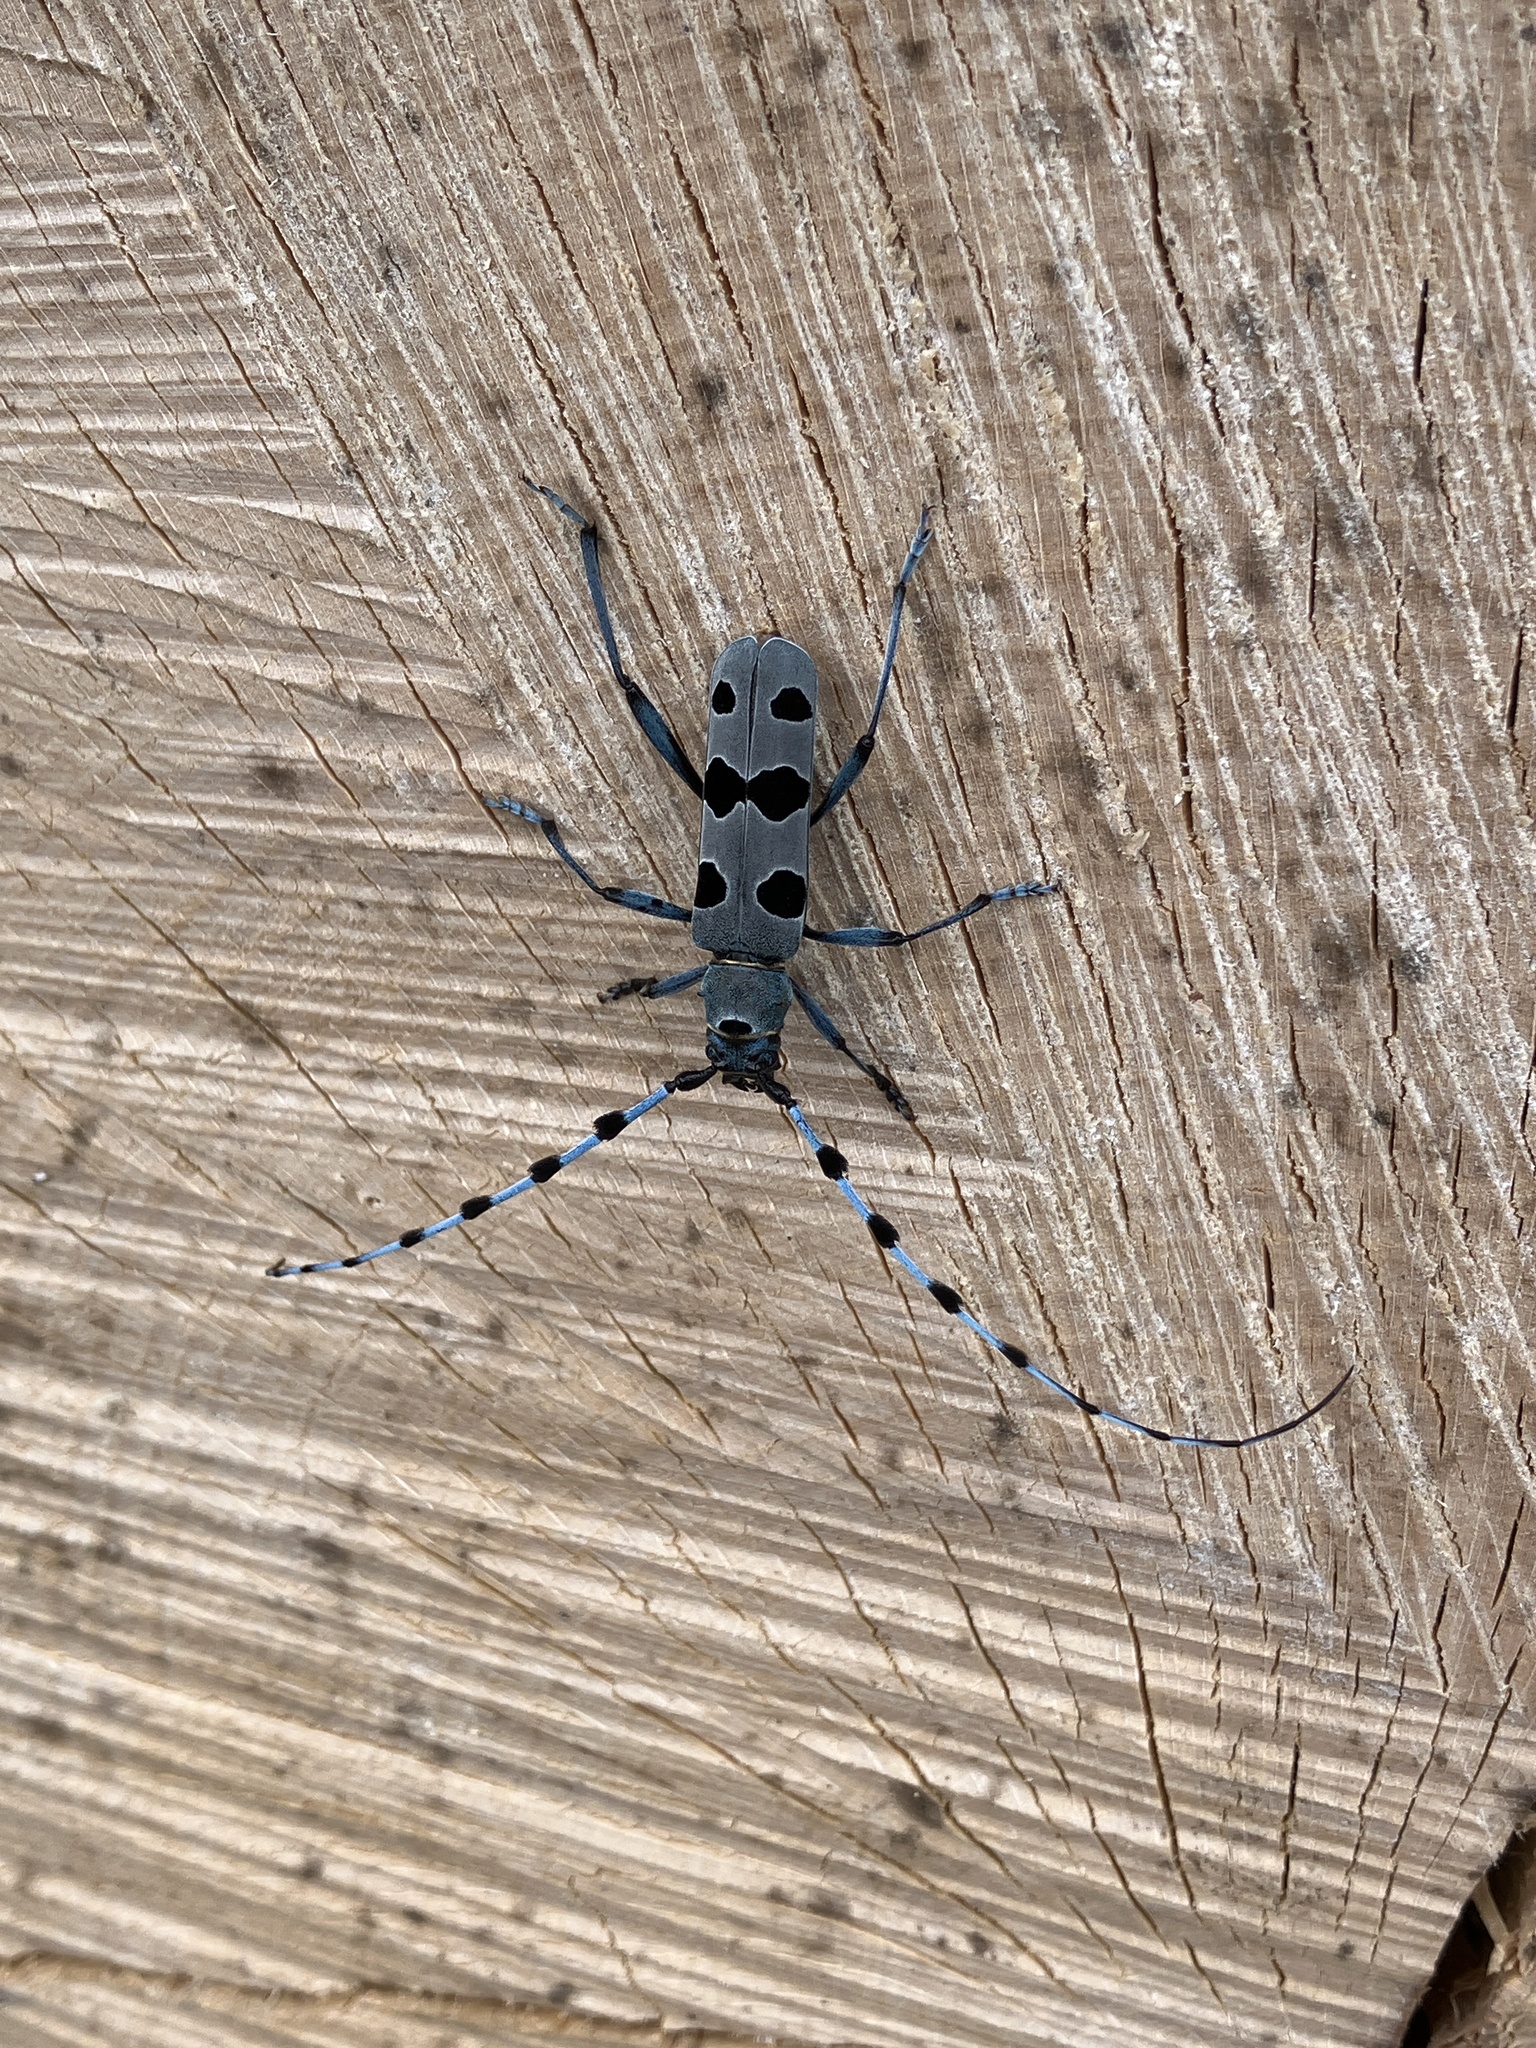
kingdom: Animalia
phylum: Arthropoda
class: Insecta
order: Coleoptera
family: Cerambycidae
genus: Rosalia
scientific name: Rosalia alpina
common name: Rosalia longicorn
